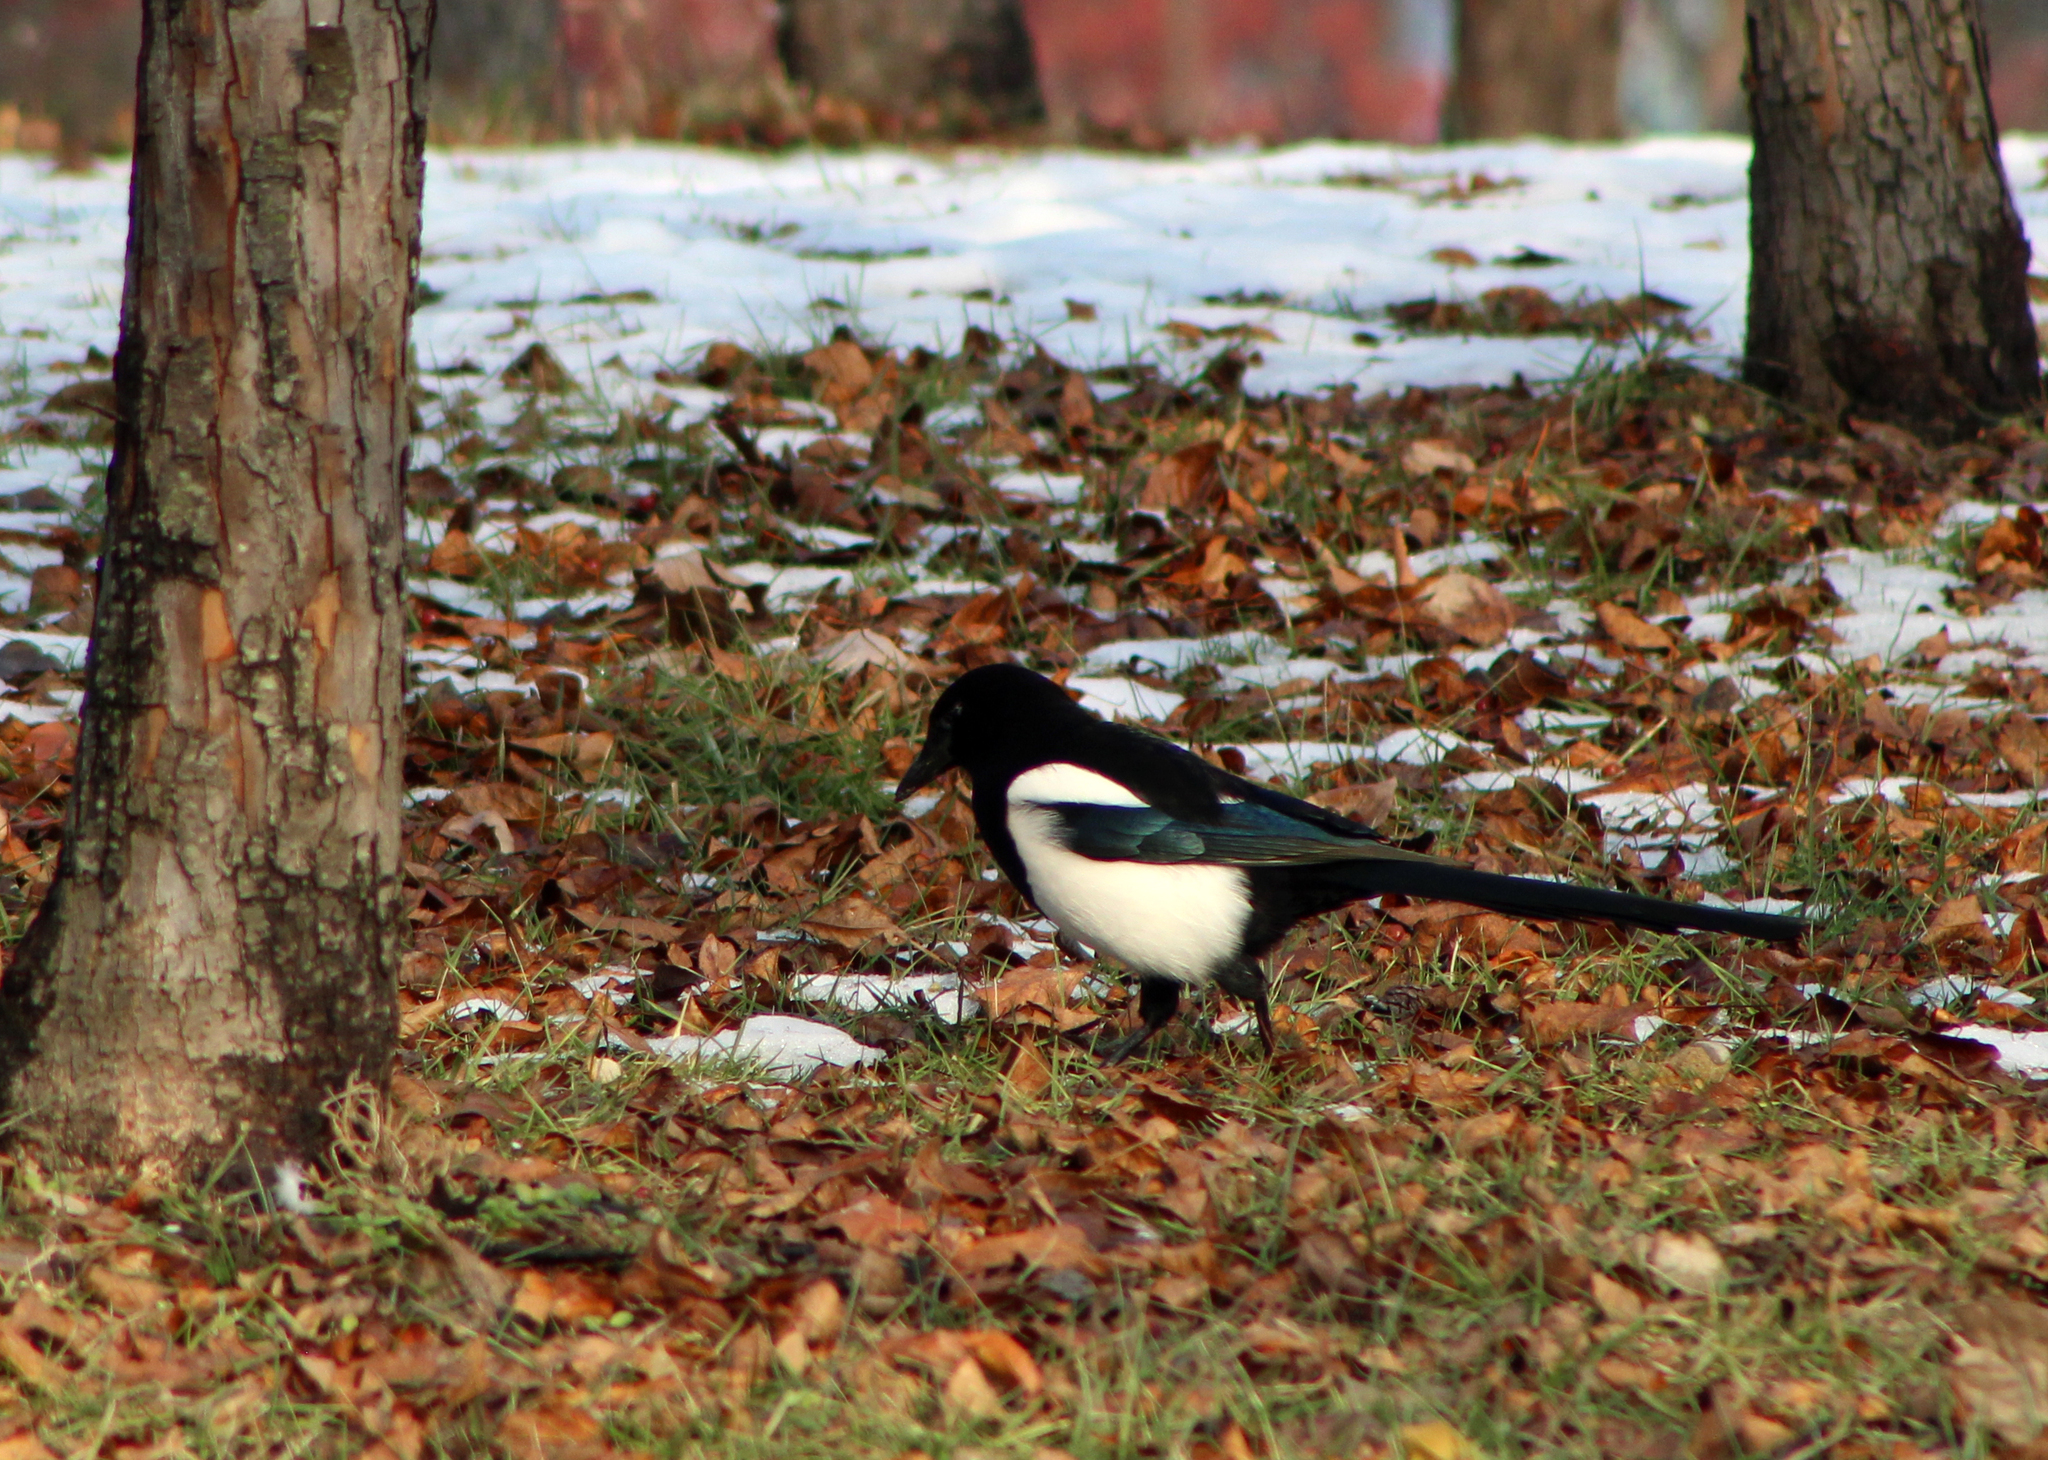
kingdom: Animalia
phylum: Chordata
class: Aves
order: Passeriformes
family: Corvidae
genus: Pica
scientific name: Pica serica
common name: Oriental magpie
